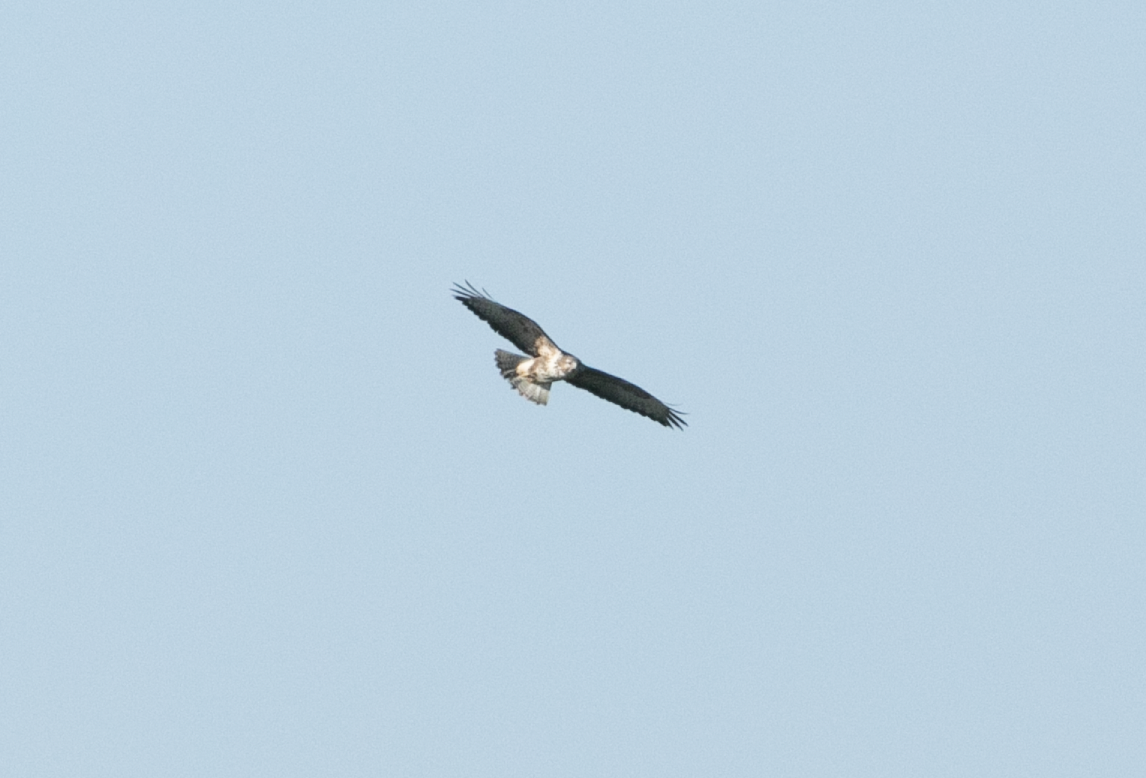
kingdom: Animalia
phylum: Chordata
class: Aves
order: Accipitriformes
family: Accipitridae
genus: Buteo
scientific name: Buteo buteo
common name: Common buzzard
